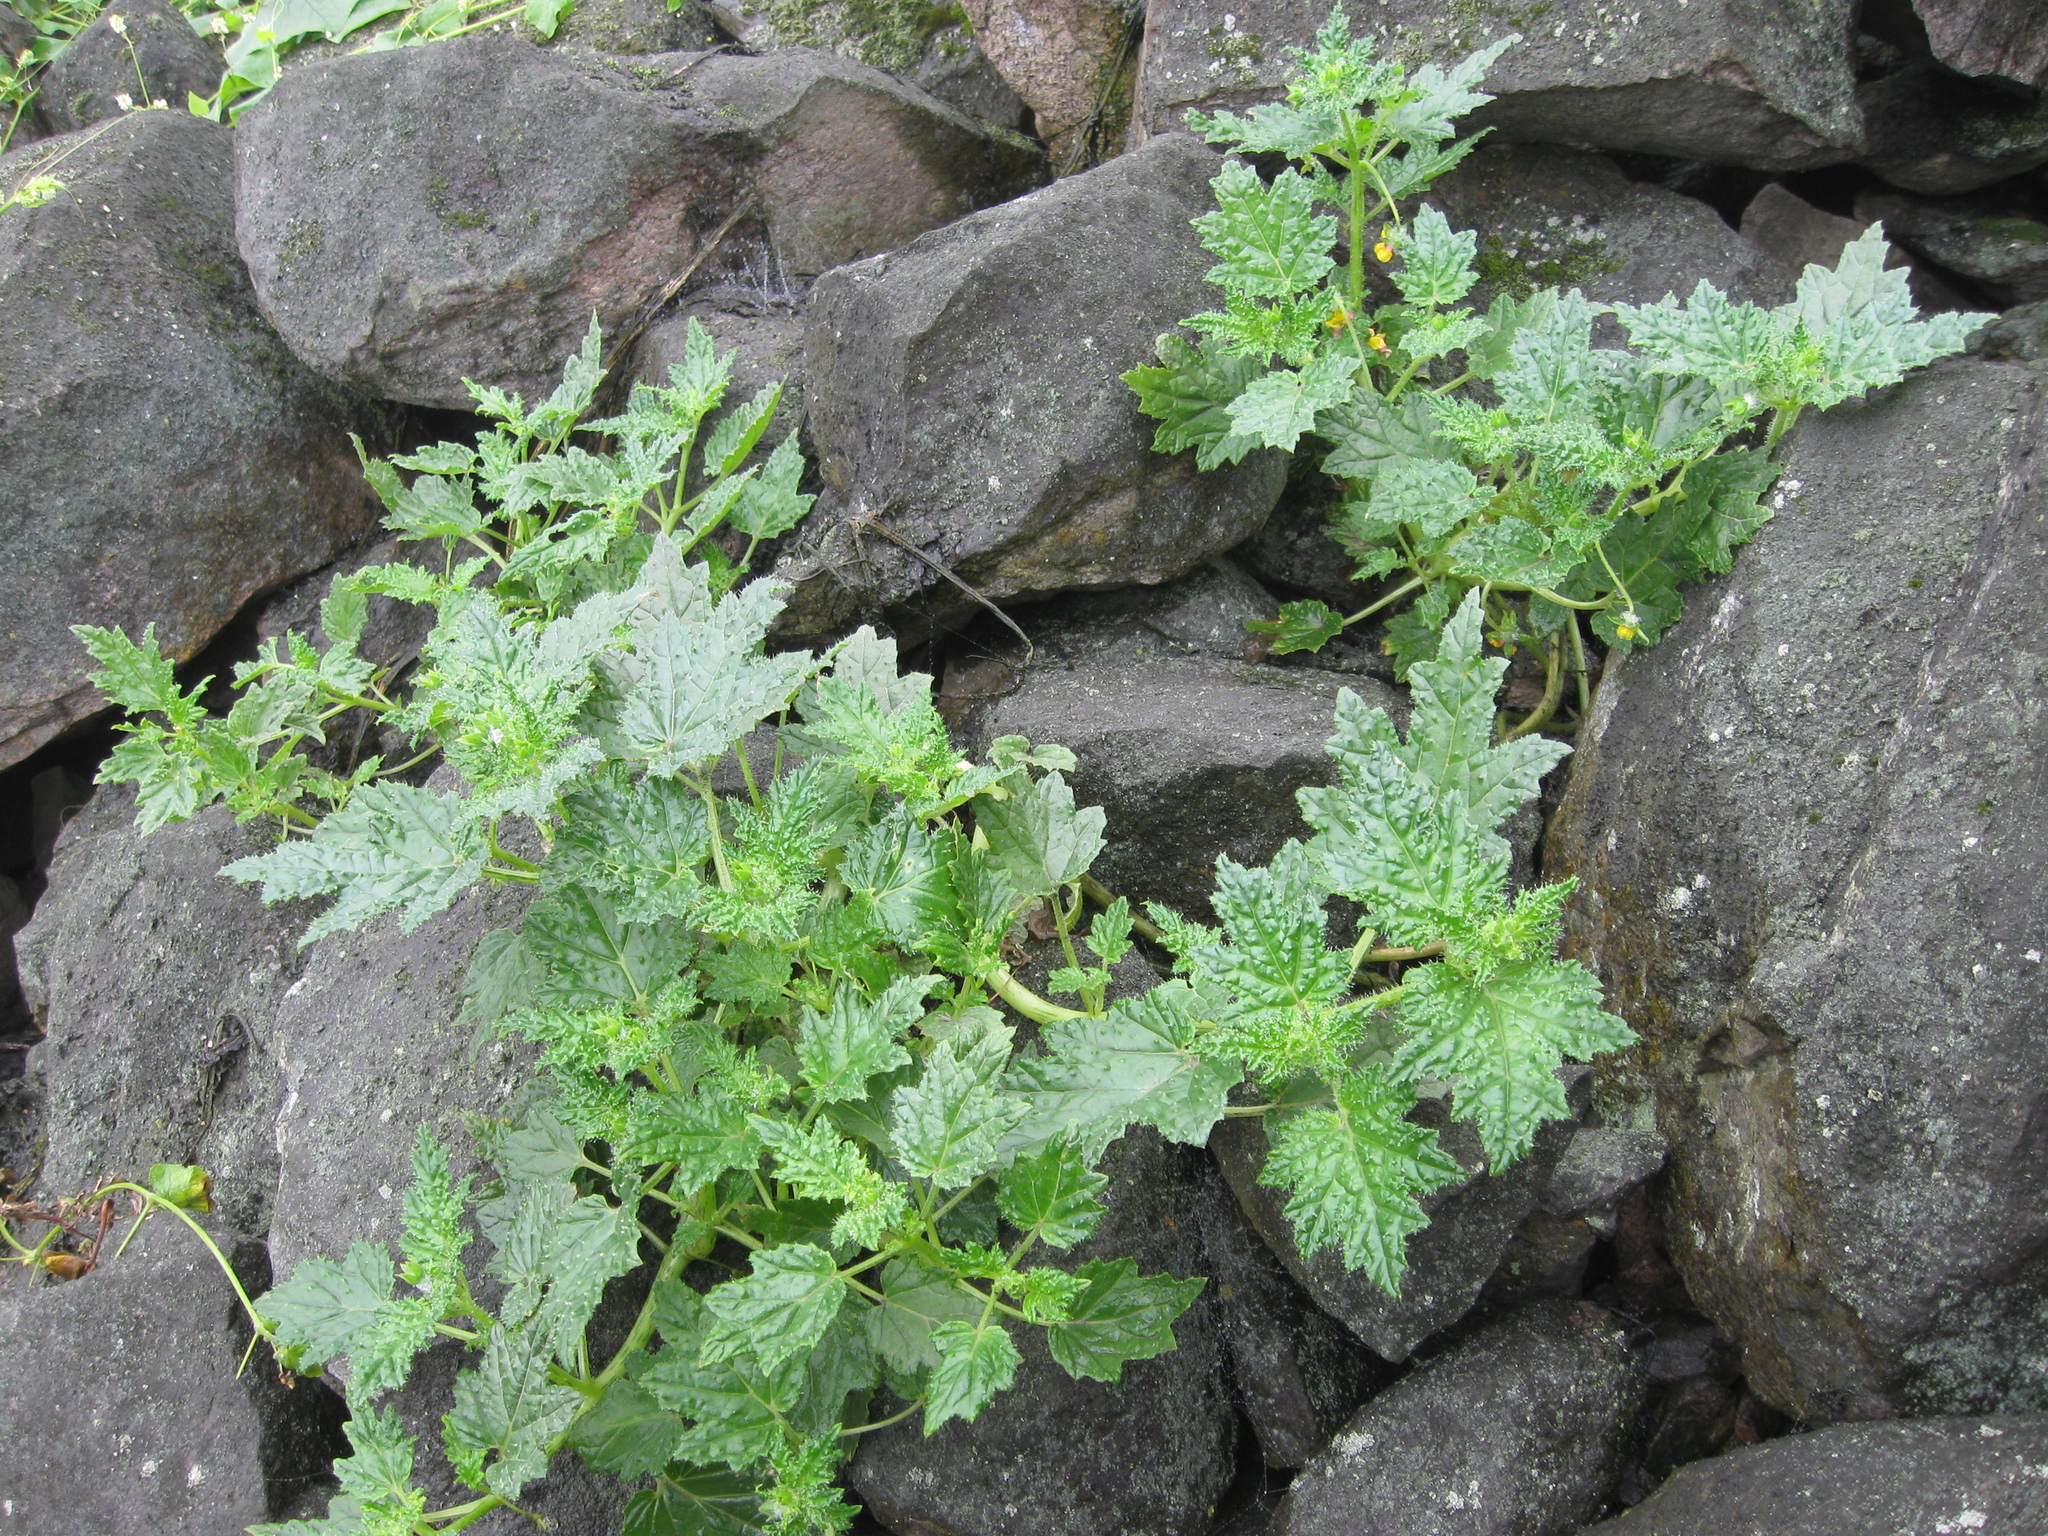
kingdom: Plantae
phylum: Tracheophyta
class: Magnoliopsida
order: Cornales
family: Loasaceae
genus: Loasa
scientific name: Loasa nitida
